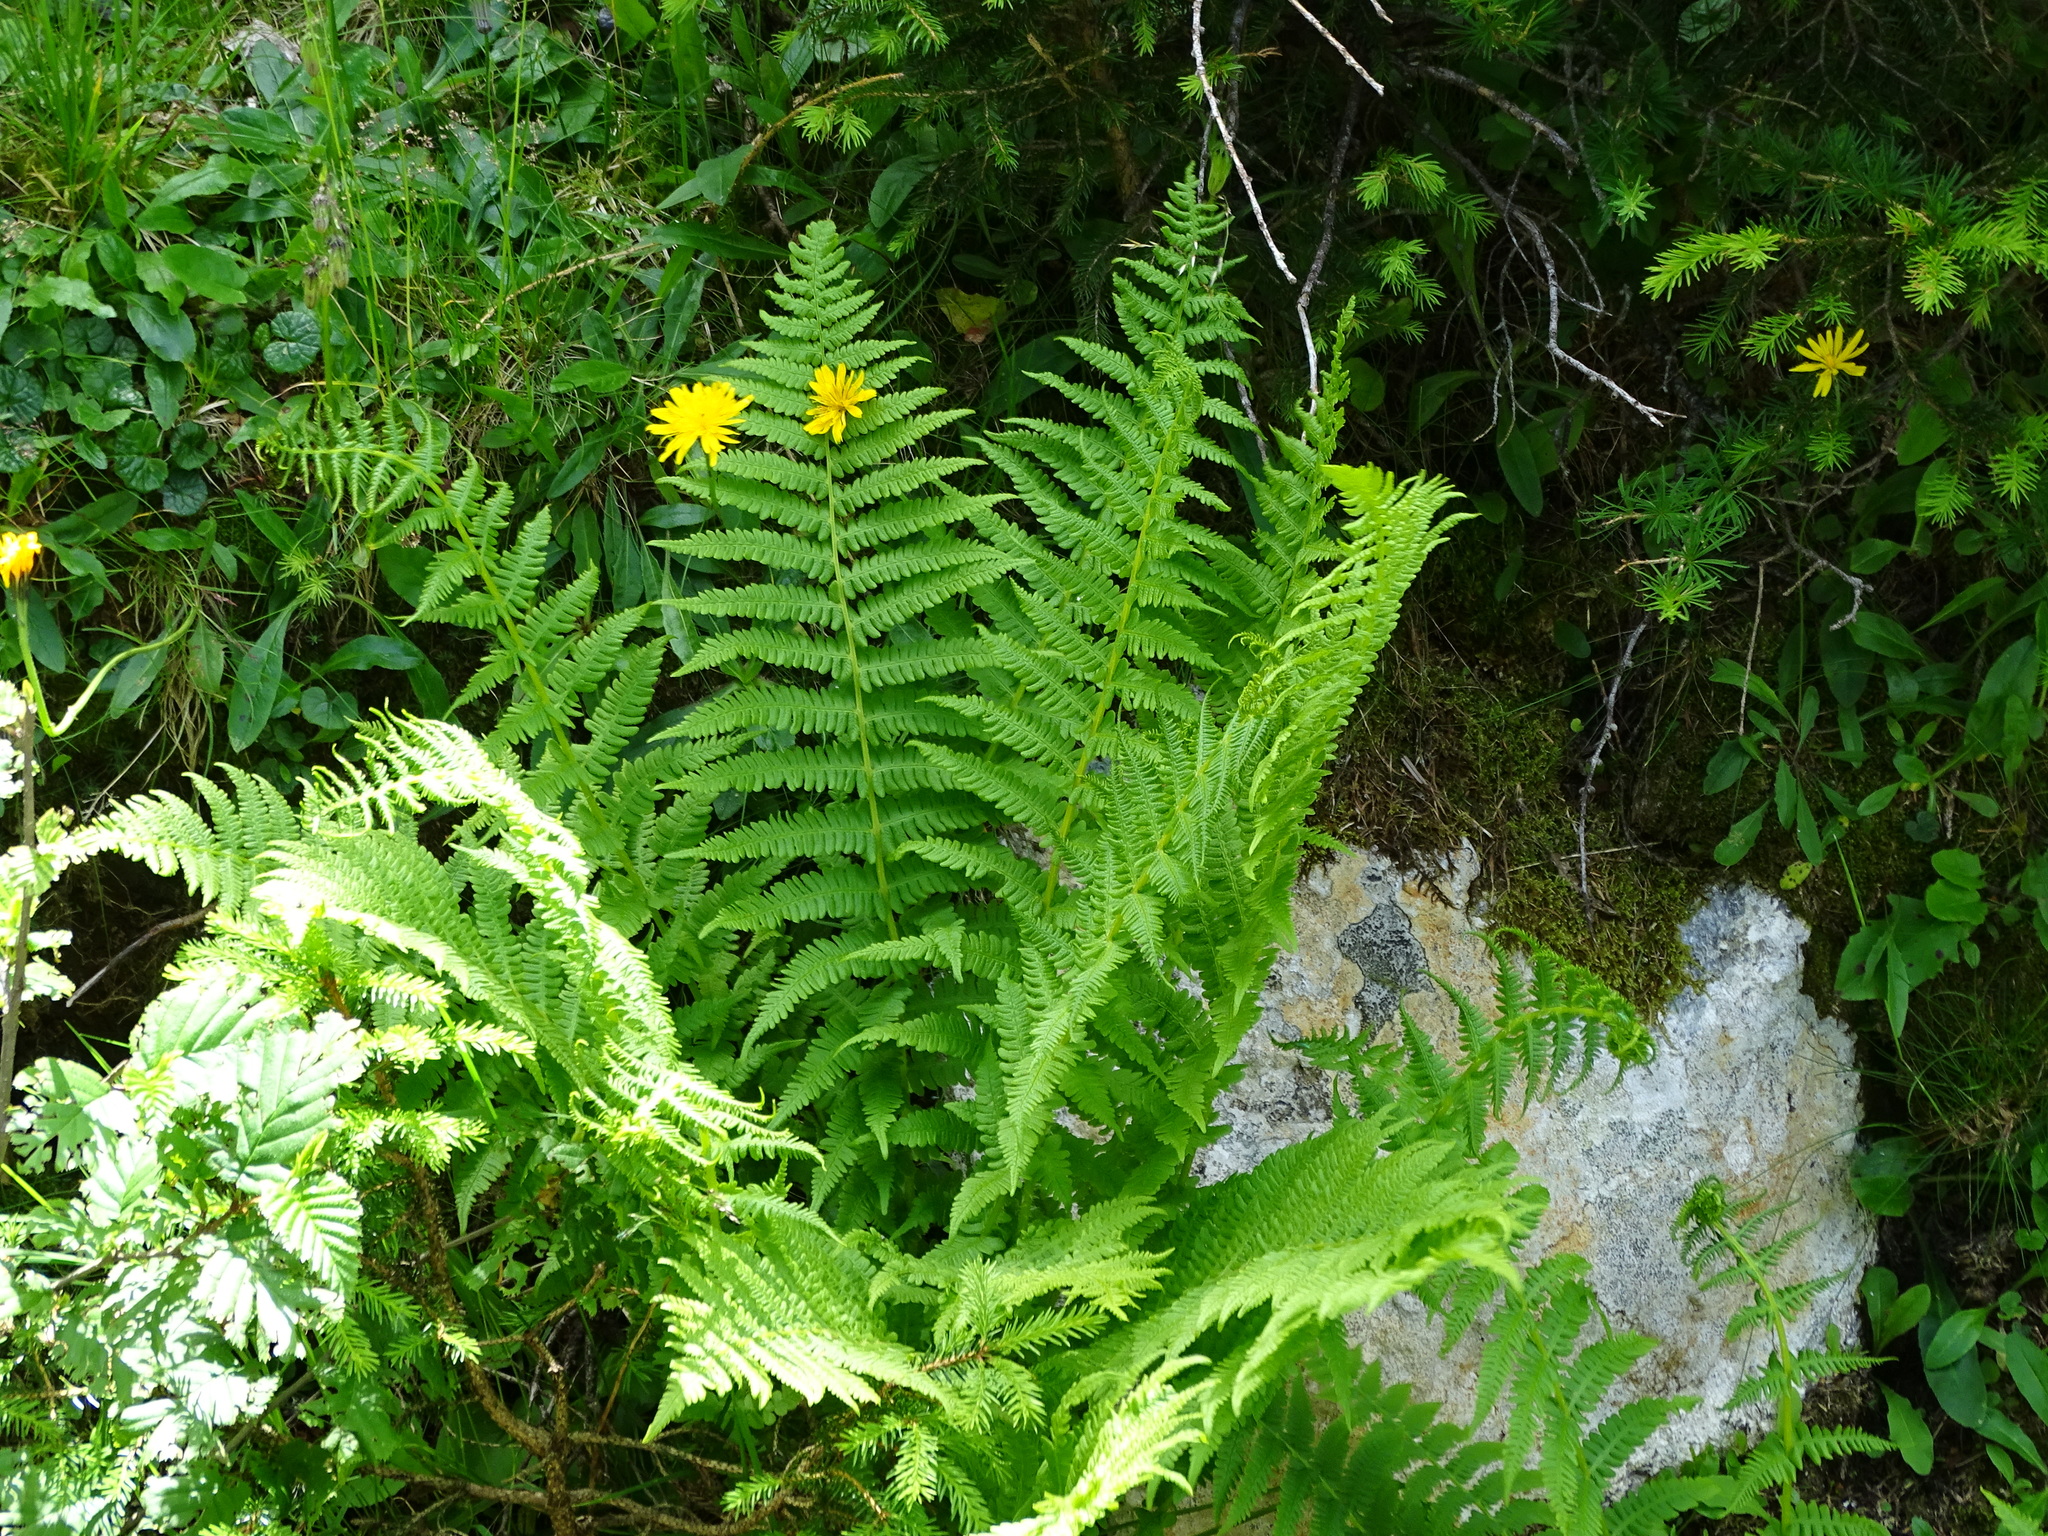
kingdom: Plantae
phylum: Tracheophyta
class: Polypodiopsida
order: Polypodiales
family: Thelypteridaceae
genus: Oreopteris
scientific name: Oreopteris limbosperma
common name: Lemon-scented fern
